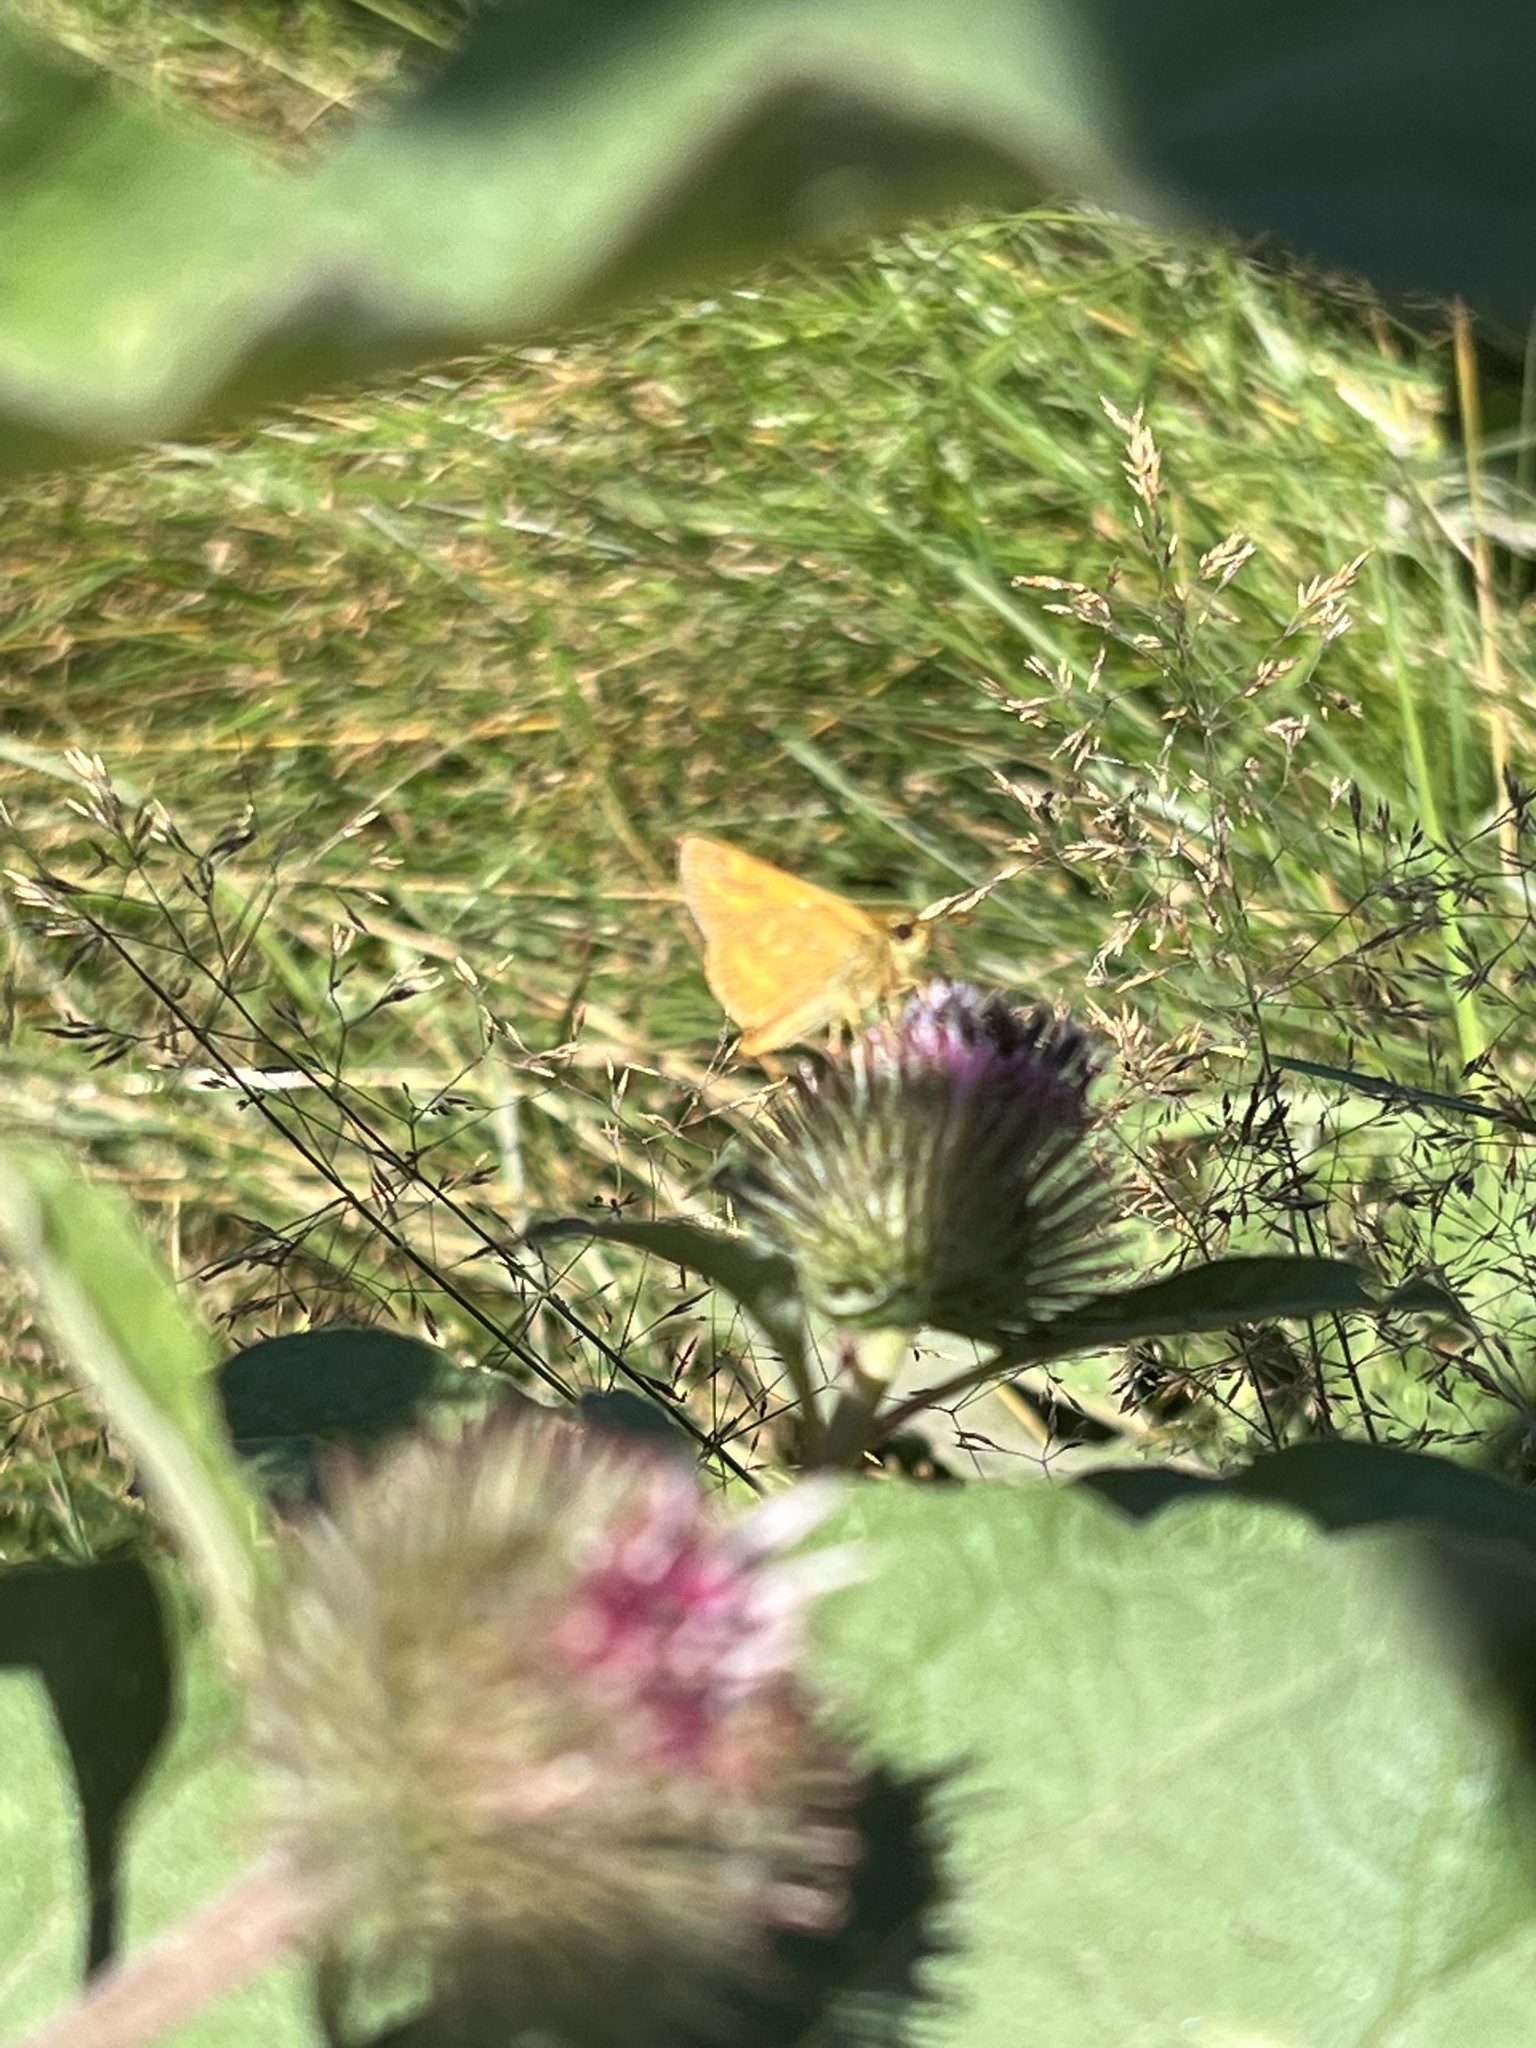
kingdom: Animalia
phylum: Arthropoda
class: Insecta
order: Lepidoptera
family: Hesperiidae
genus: Ochlodes
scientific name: Ochlodes sylvanoides
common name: Woodland skipper
